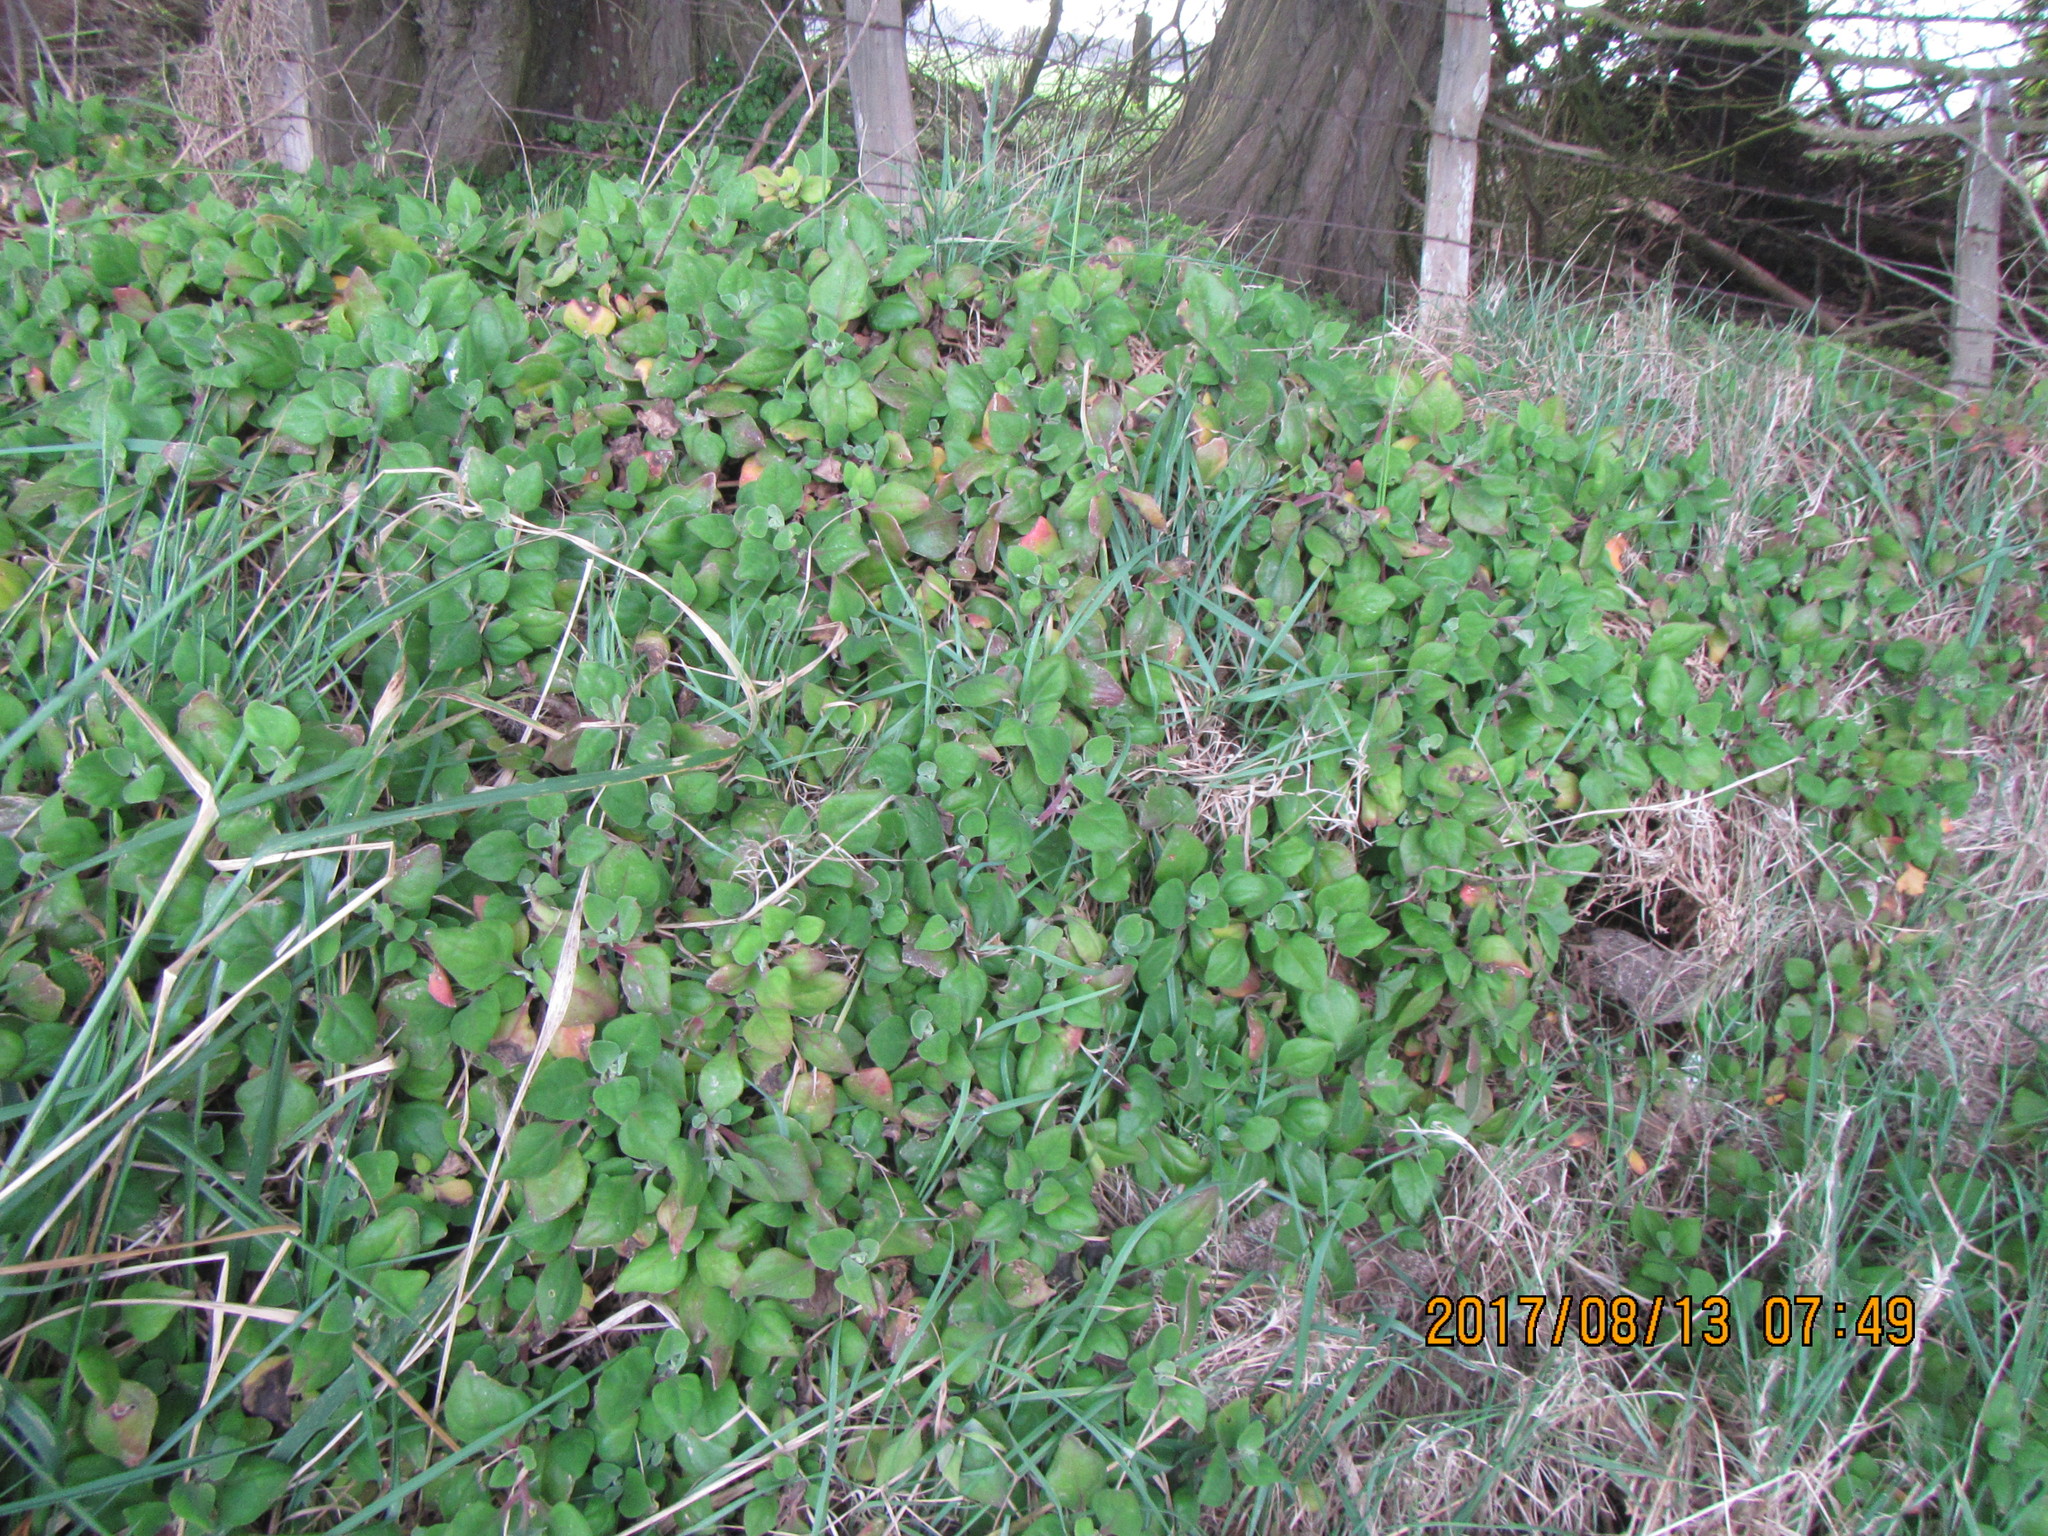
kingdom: Plantae
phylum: Tracheophyta
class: Magnoliopsida
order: Caryophyllales
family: Aizoaceae
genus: Tetragonia
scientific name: Tetragonia implexicoma
